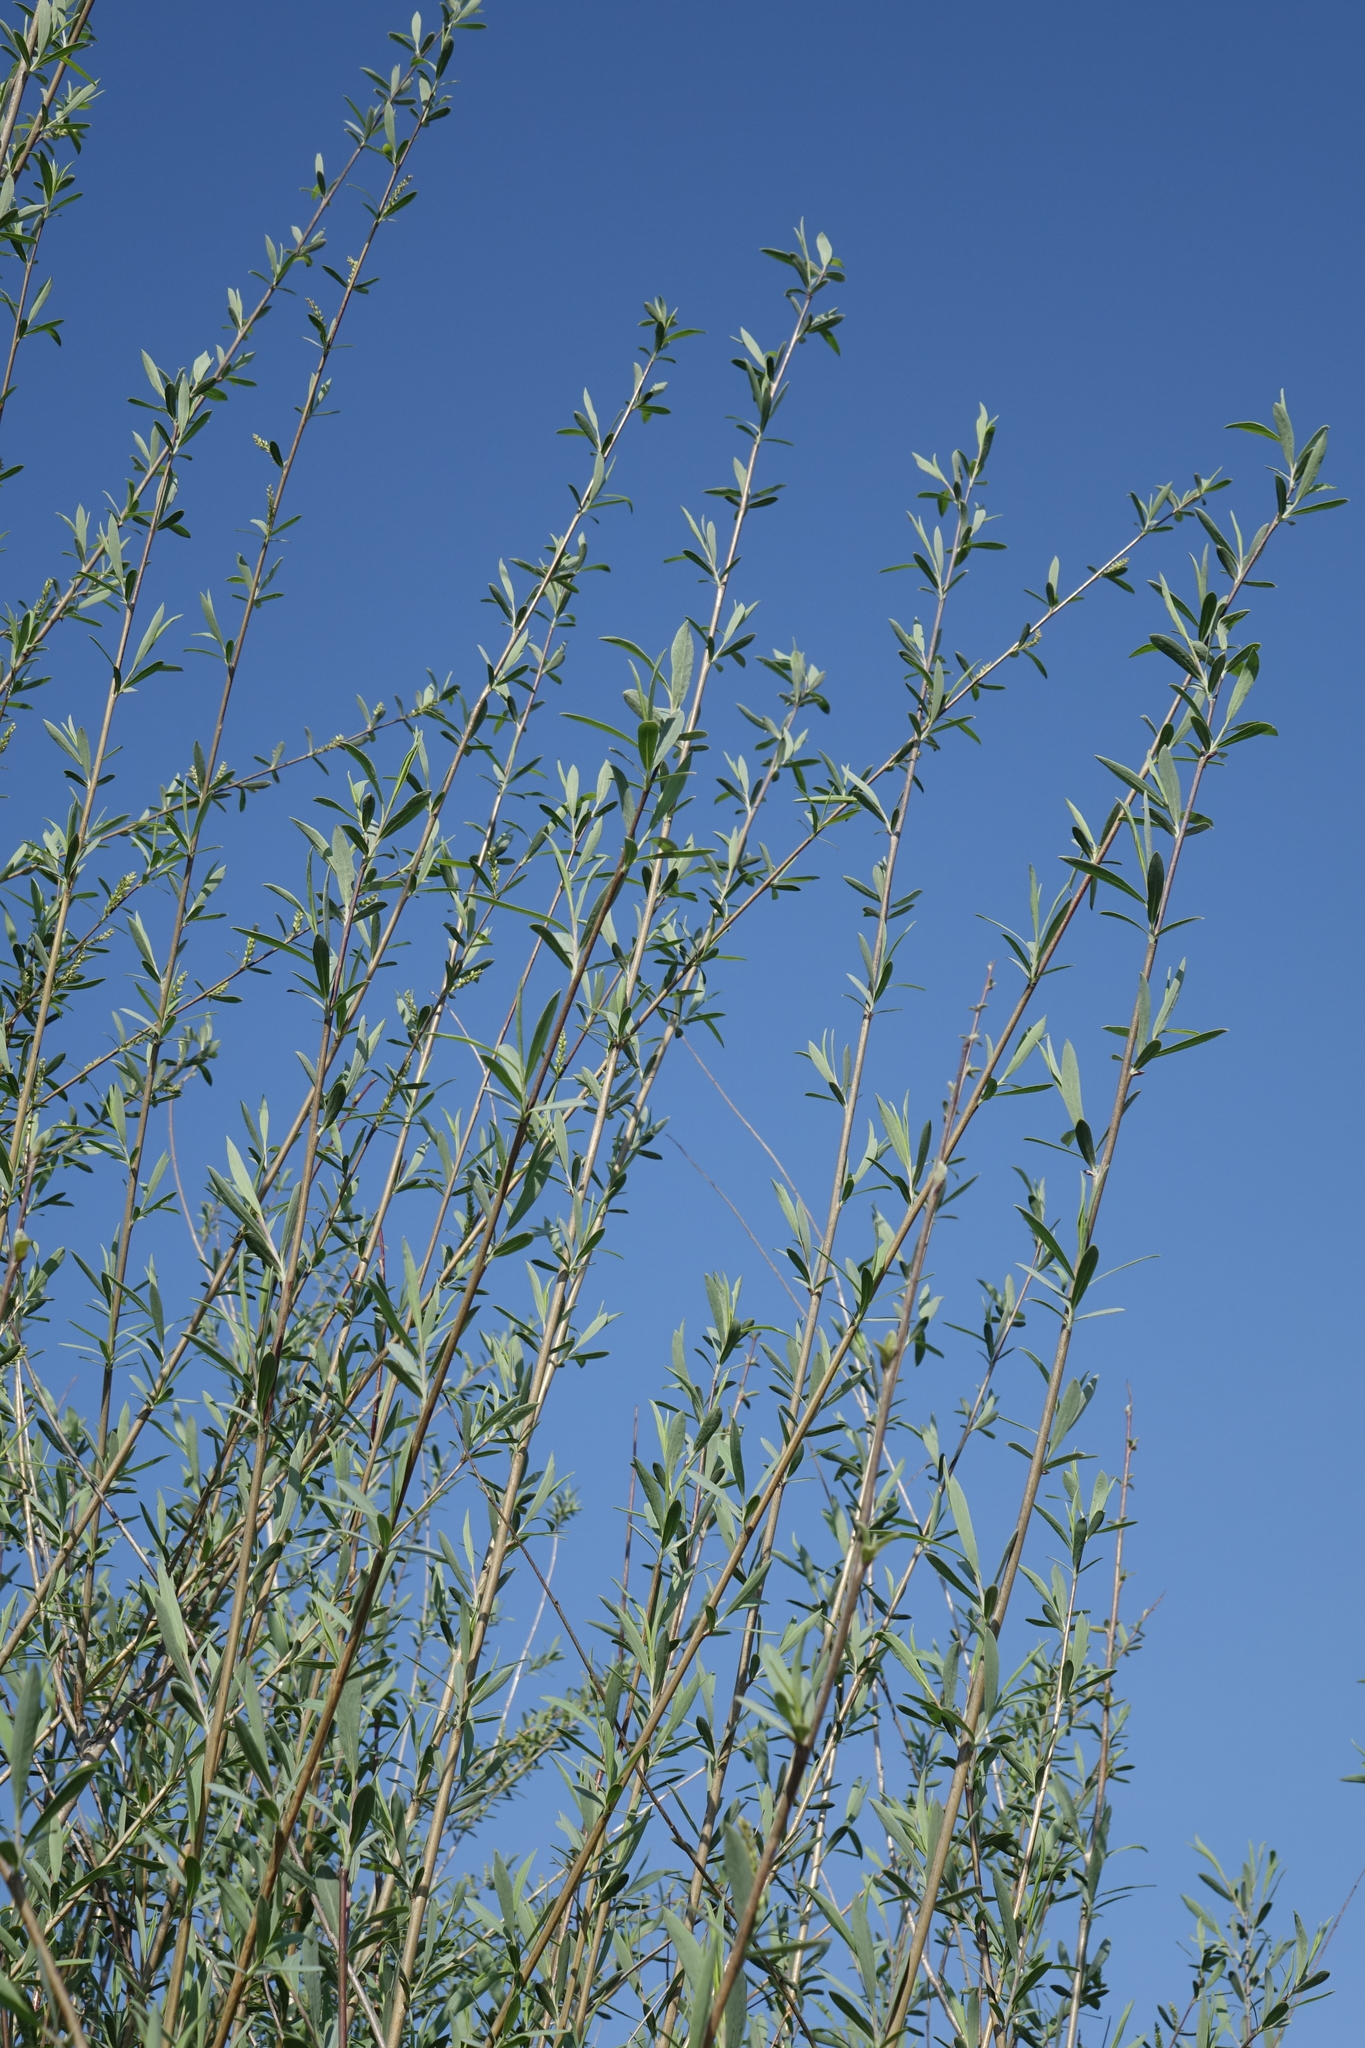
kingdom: Plantae
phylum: Tracheophyta
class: Magnoliopsida
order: Malpighiales
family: Salicaceae
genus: Salix
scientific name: Salix ledebouriana
